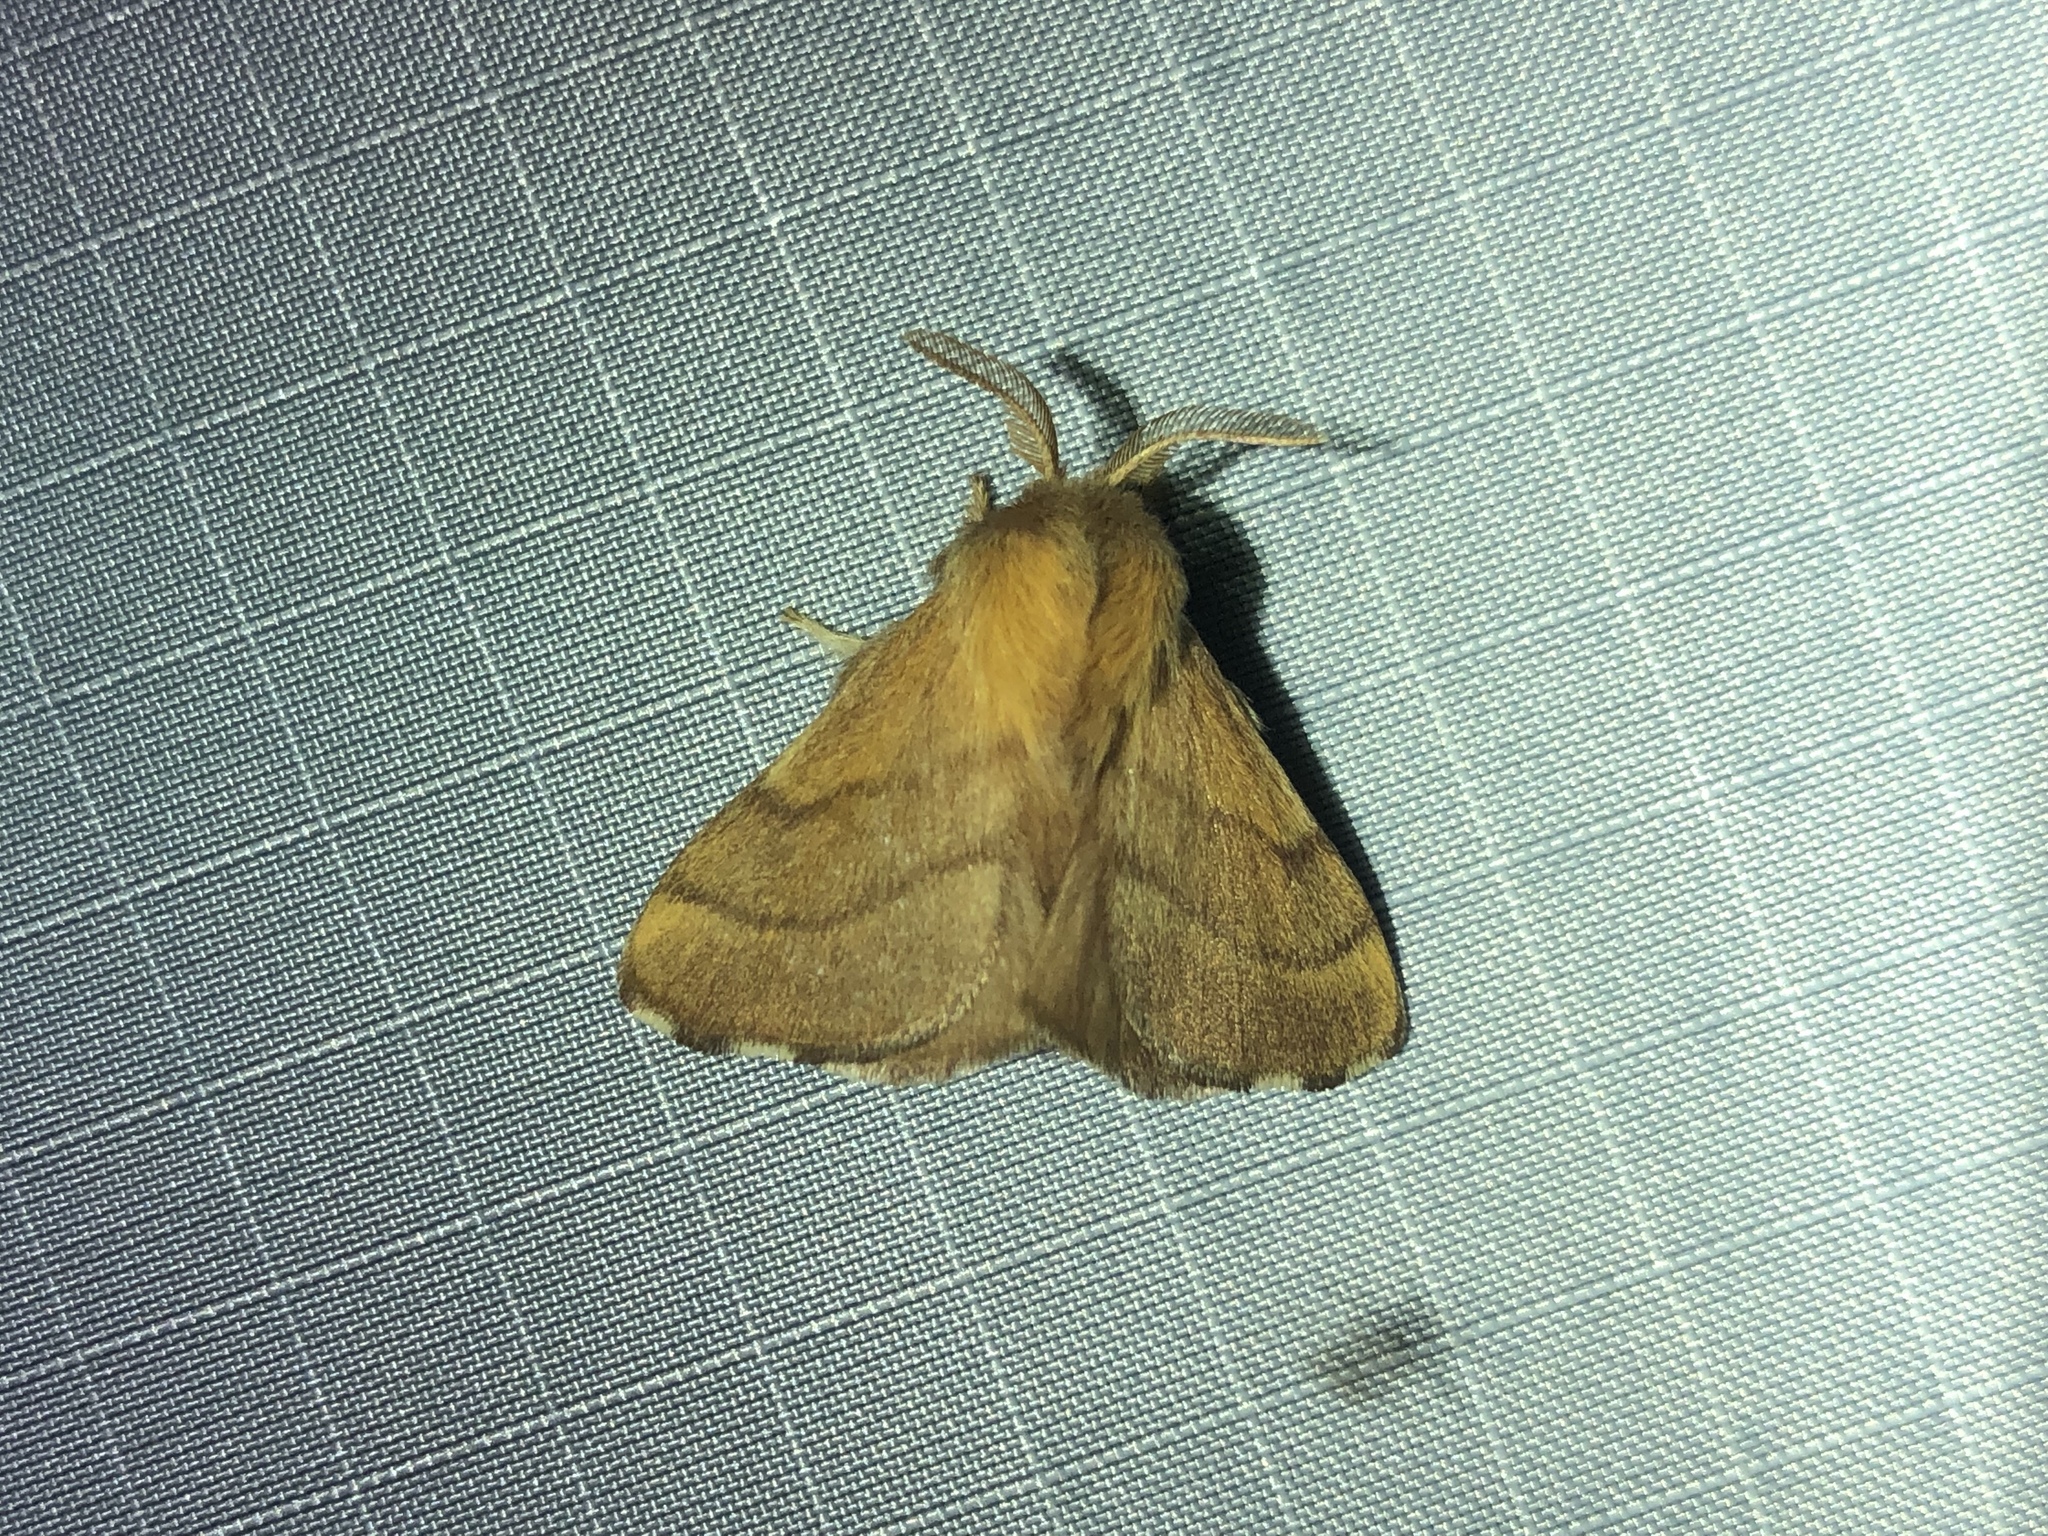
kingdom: Animalia
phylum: Arthropoda
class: Insecta
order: Lepidoptera
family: Lasiocampidae
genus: Malacosoma
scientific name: Malacosoma disstria
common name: Forest tent caterpillar
